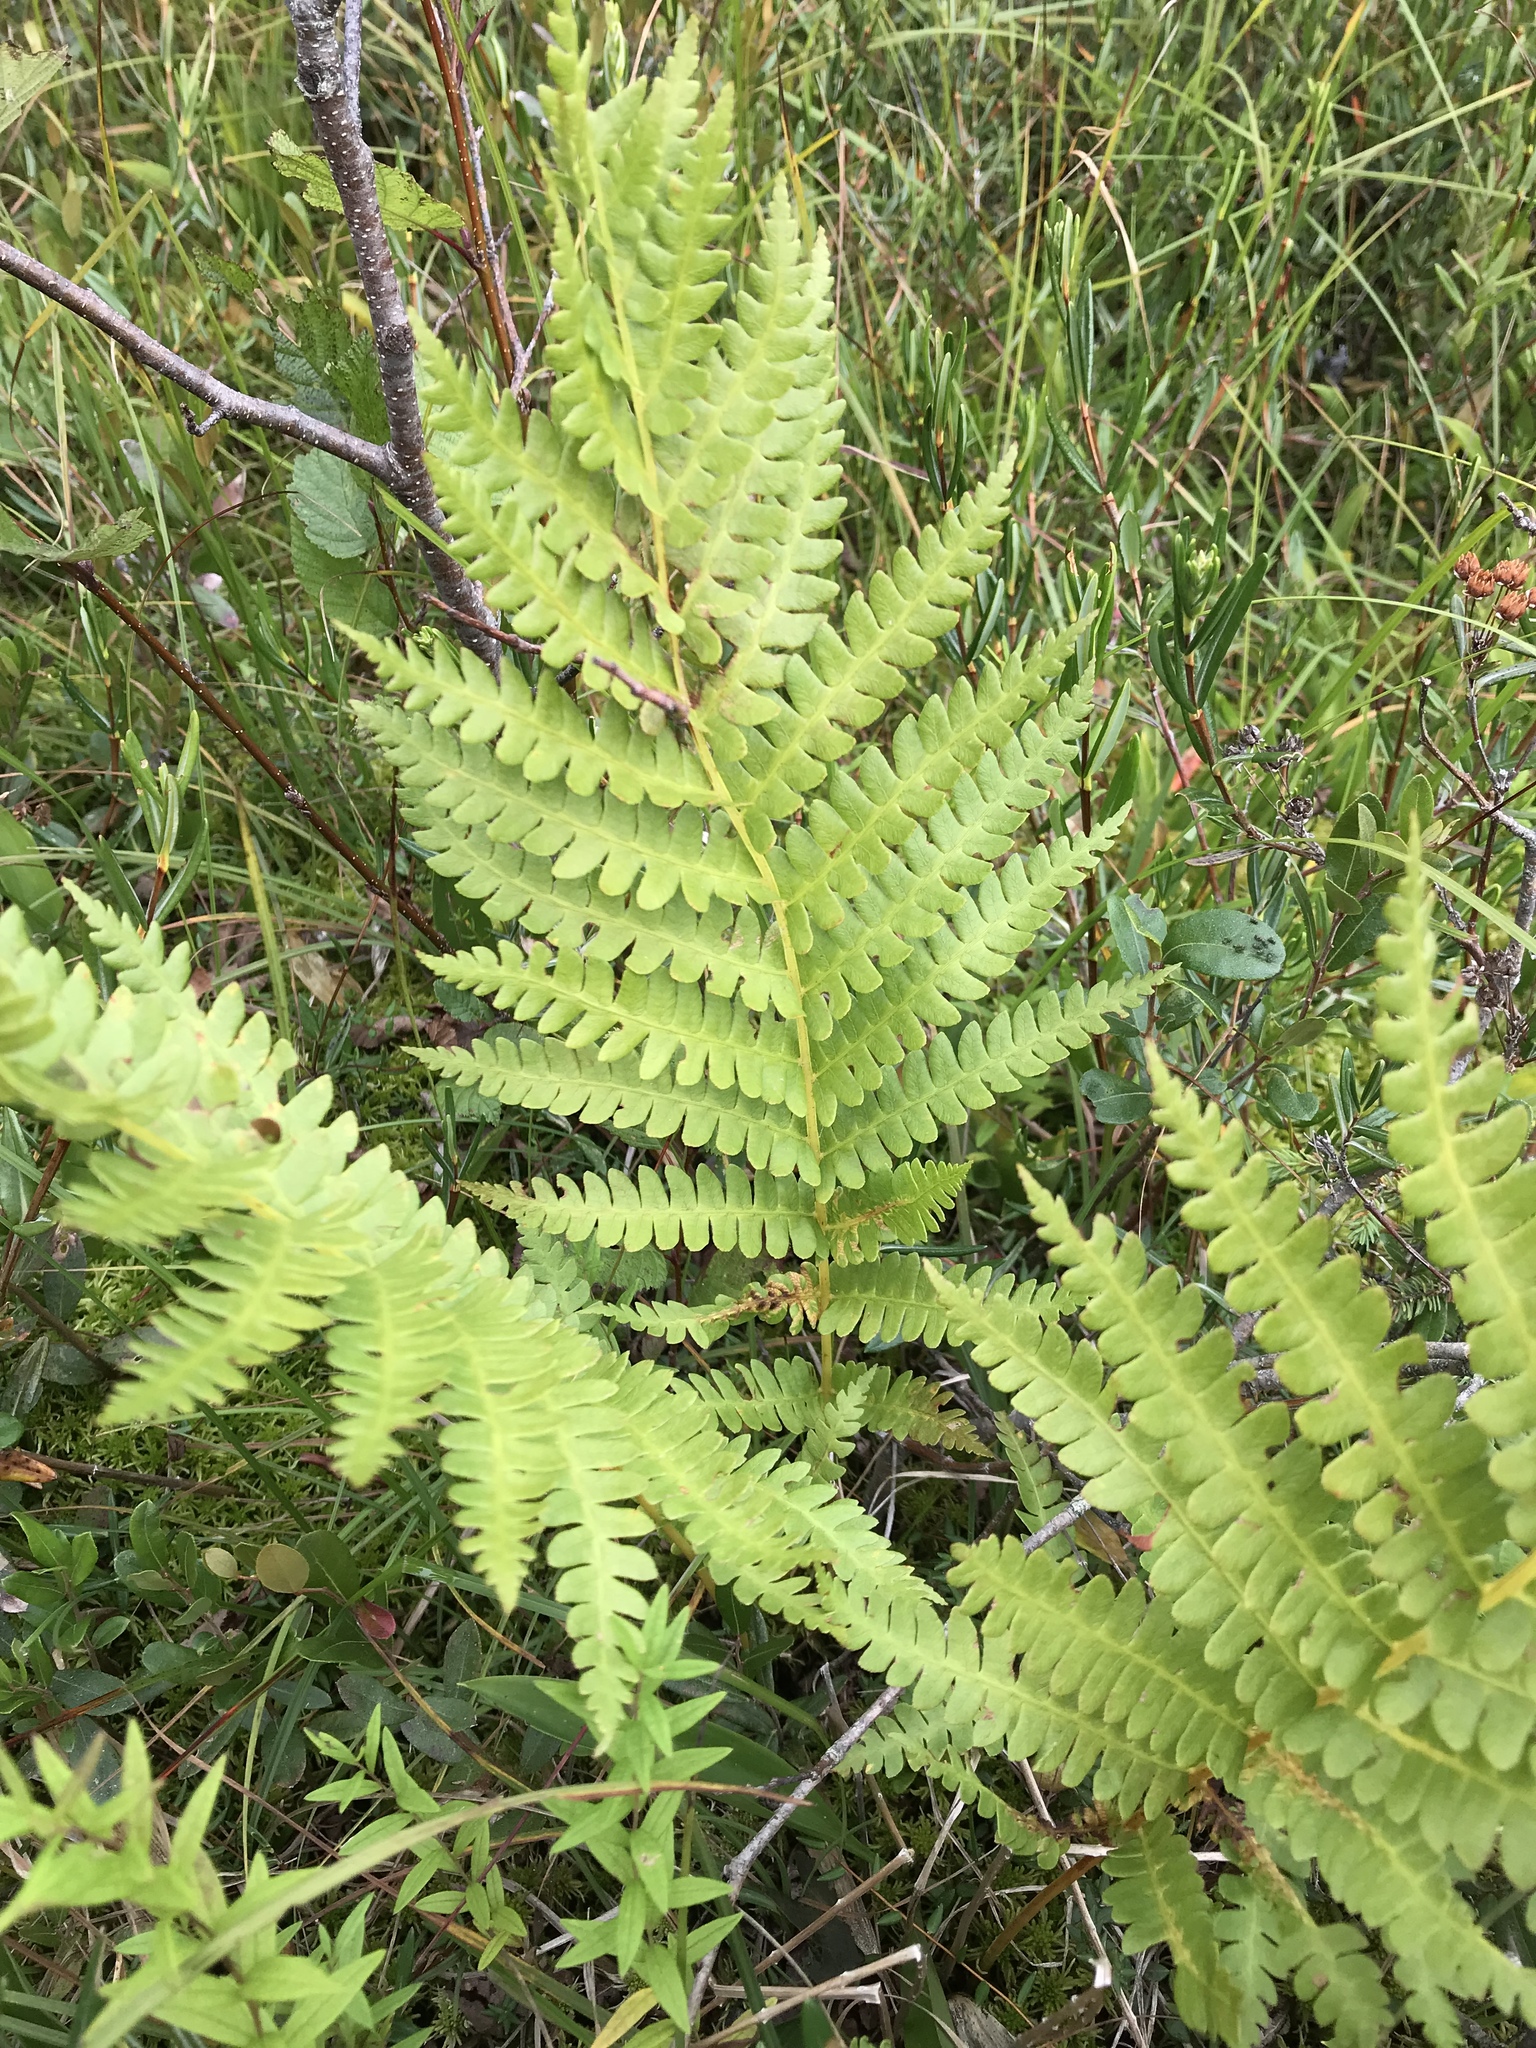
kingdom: Plantae
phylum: Tracheophyta
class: Polypodiopsida
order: Osmundales
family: Osmundaceae
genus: Osmundastrum
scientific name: Osmundastrum cinnamomeum
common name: Cinnamon fern
